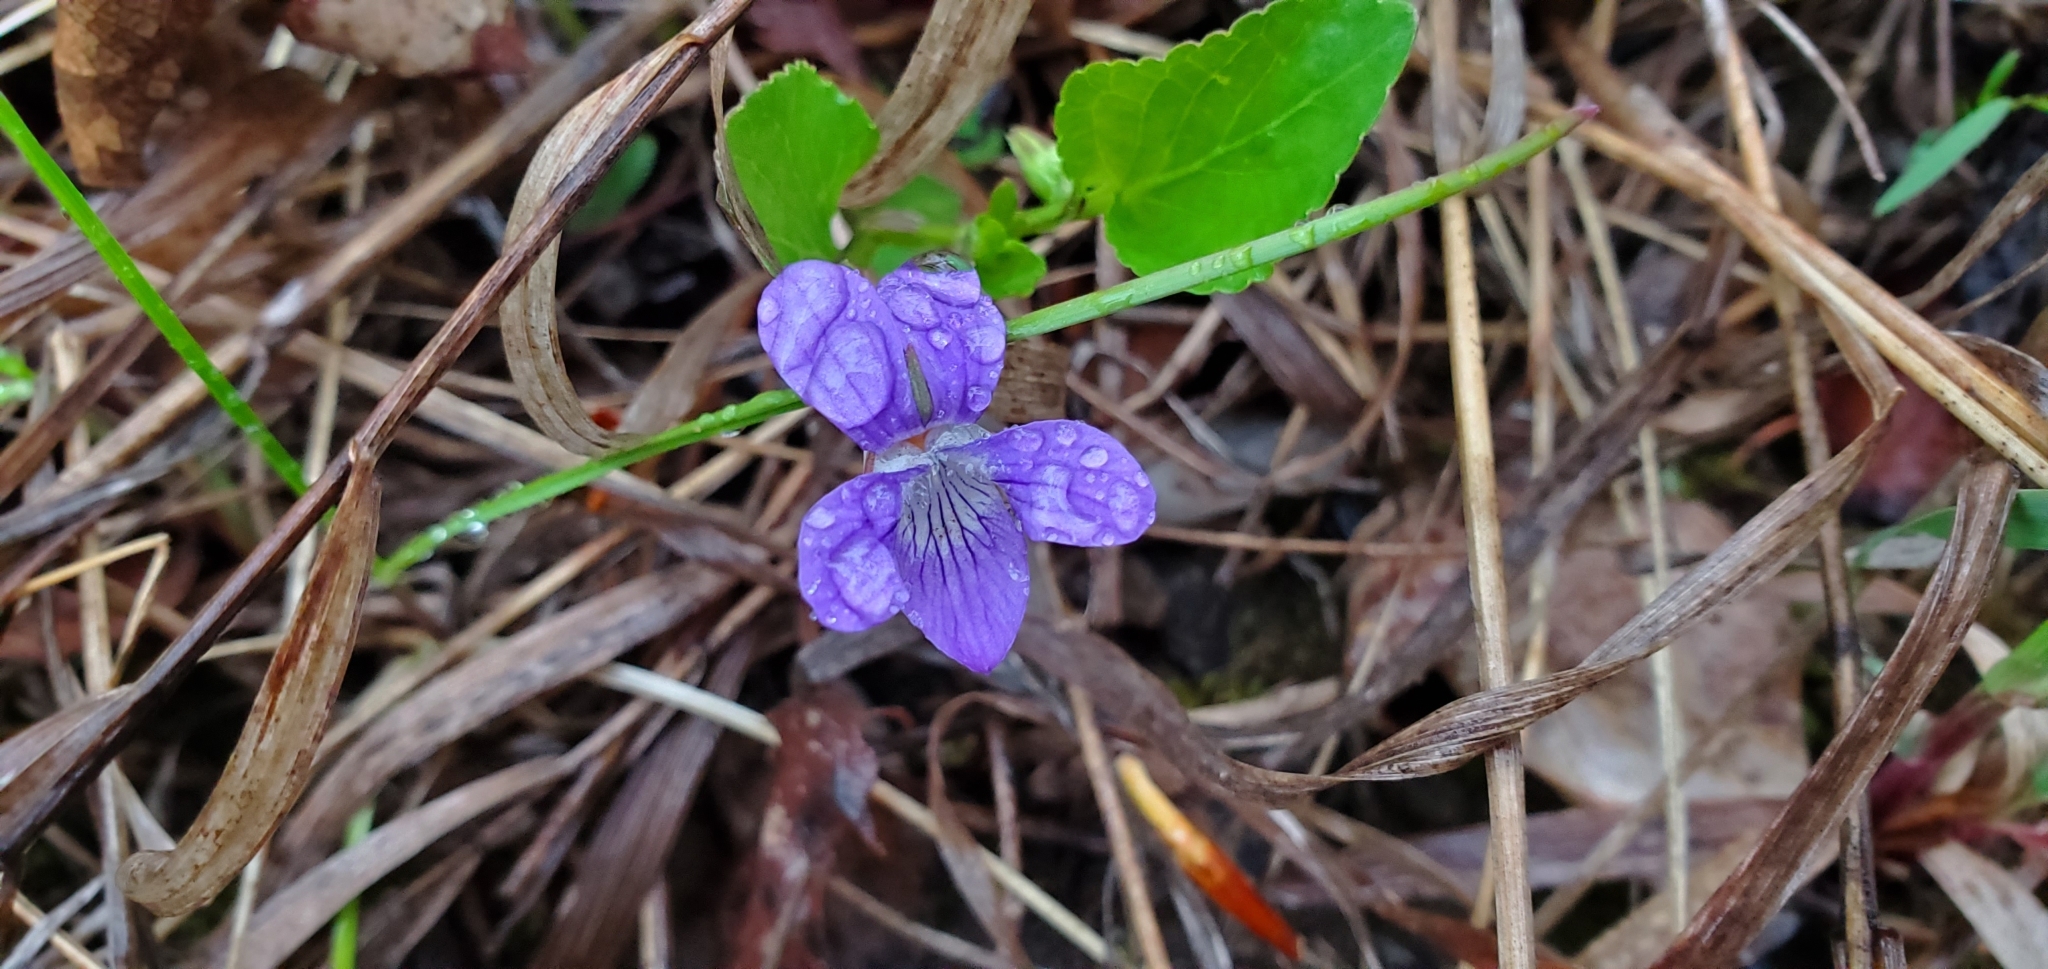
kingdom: Plantae
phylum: Tracheophyta
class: Magnoliopsida
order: Malpighiales
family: Violaceae
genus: Viola
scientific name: Viola adunca
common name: Sand violet
